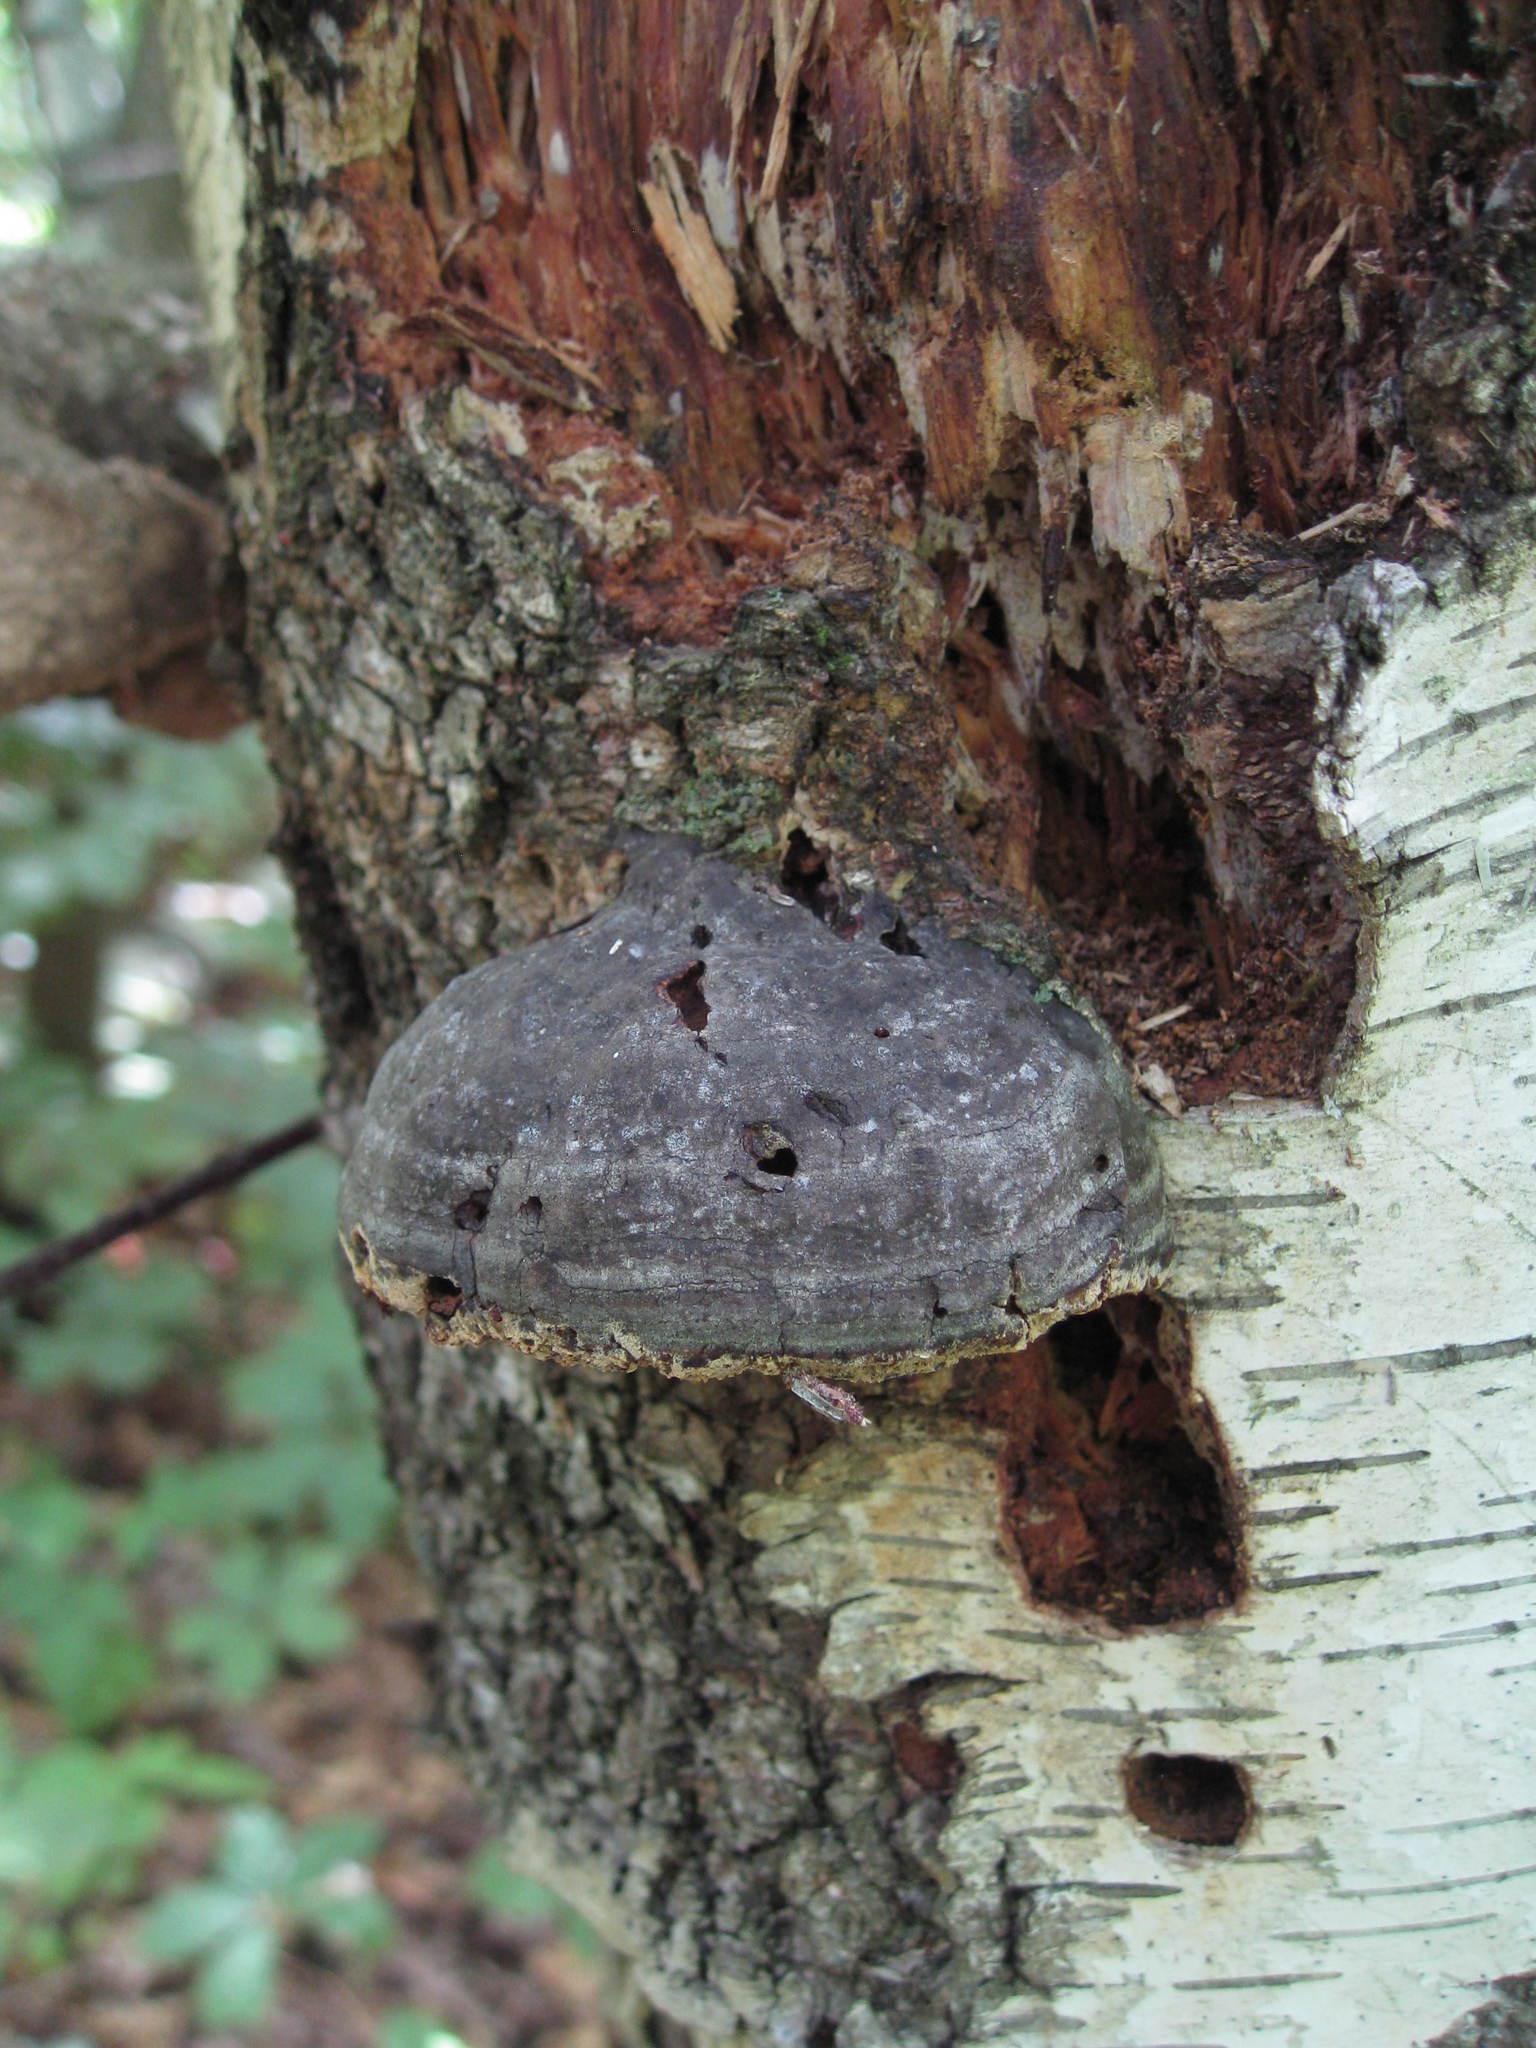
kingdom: Fungi
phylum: Basidiomycota
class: Agaricomycetes
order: Polyporales
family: Polyporaceae
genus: Fomes
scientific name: Fomes fomentarius
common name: Hoof fungus
